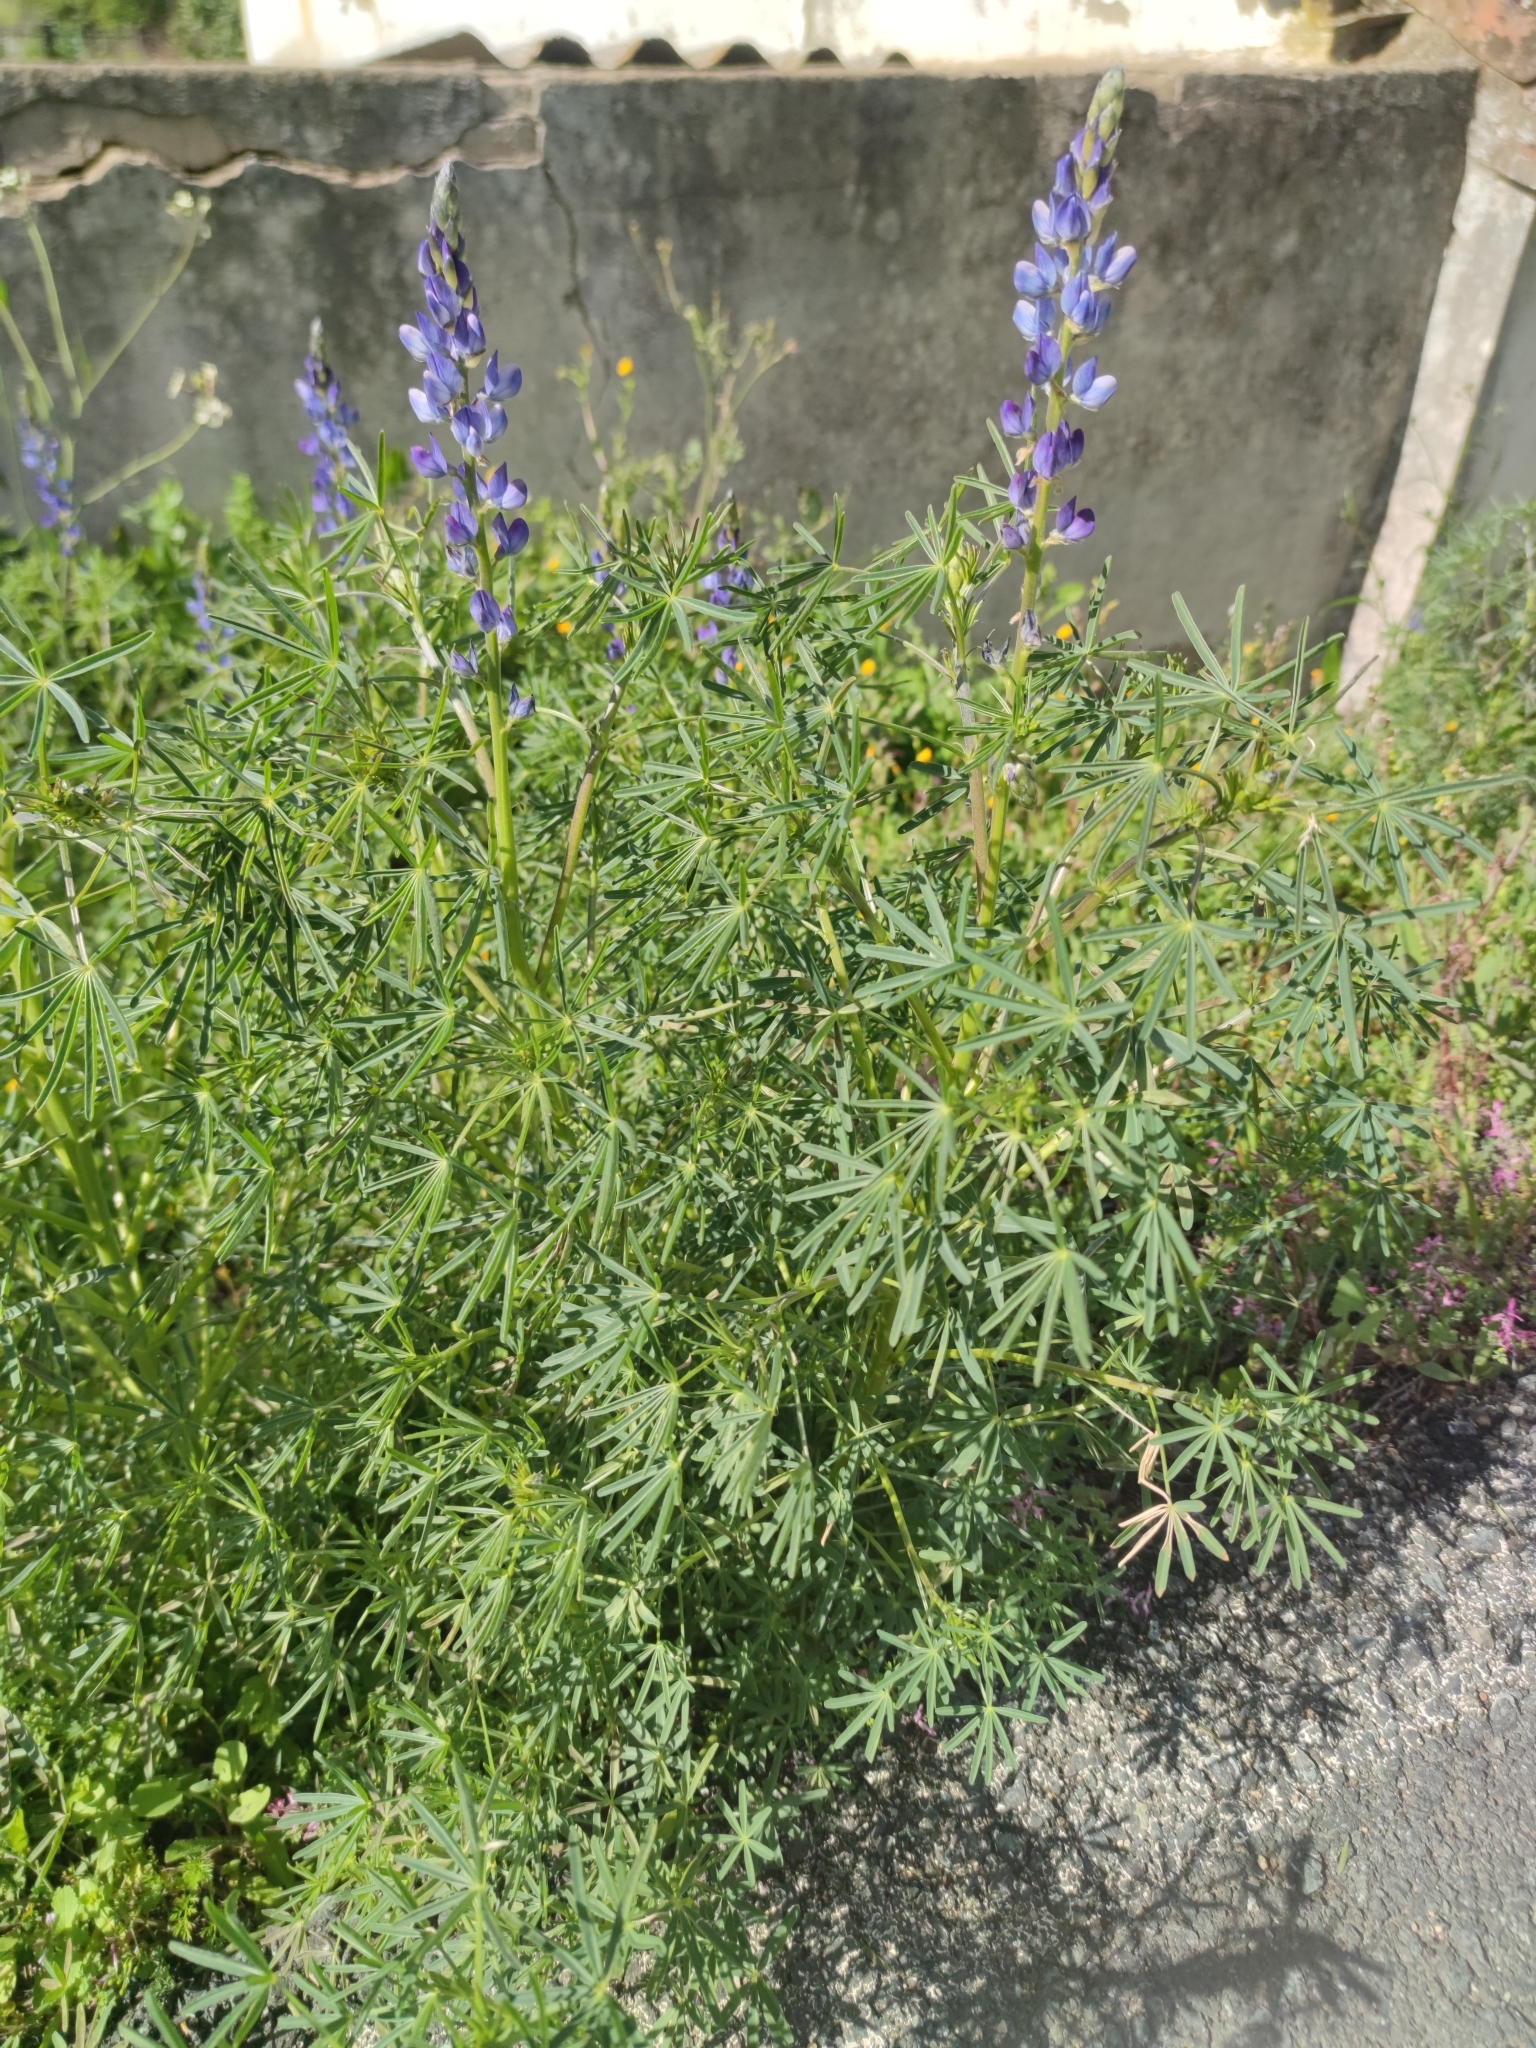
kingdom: Plantae
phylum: Tracheophyta
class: Magnoliopsida
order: Fabales
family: Fabaceae
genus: Lupinus
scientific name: Lupinus angustifolius
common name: Narrow-leaved lupin
